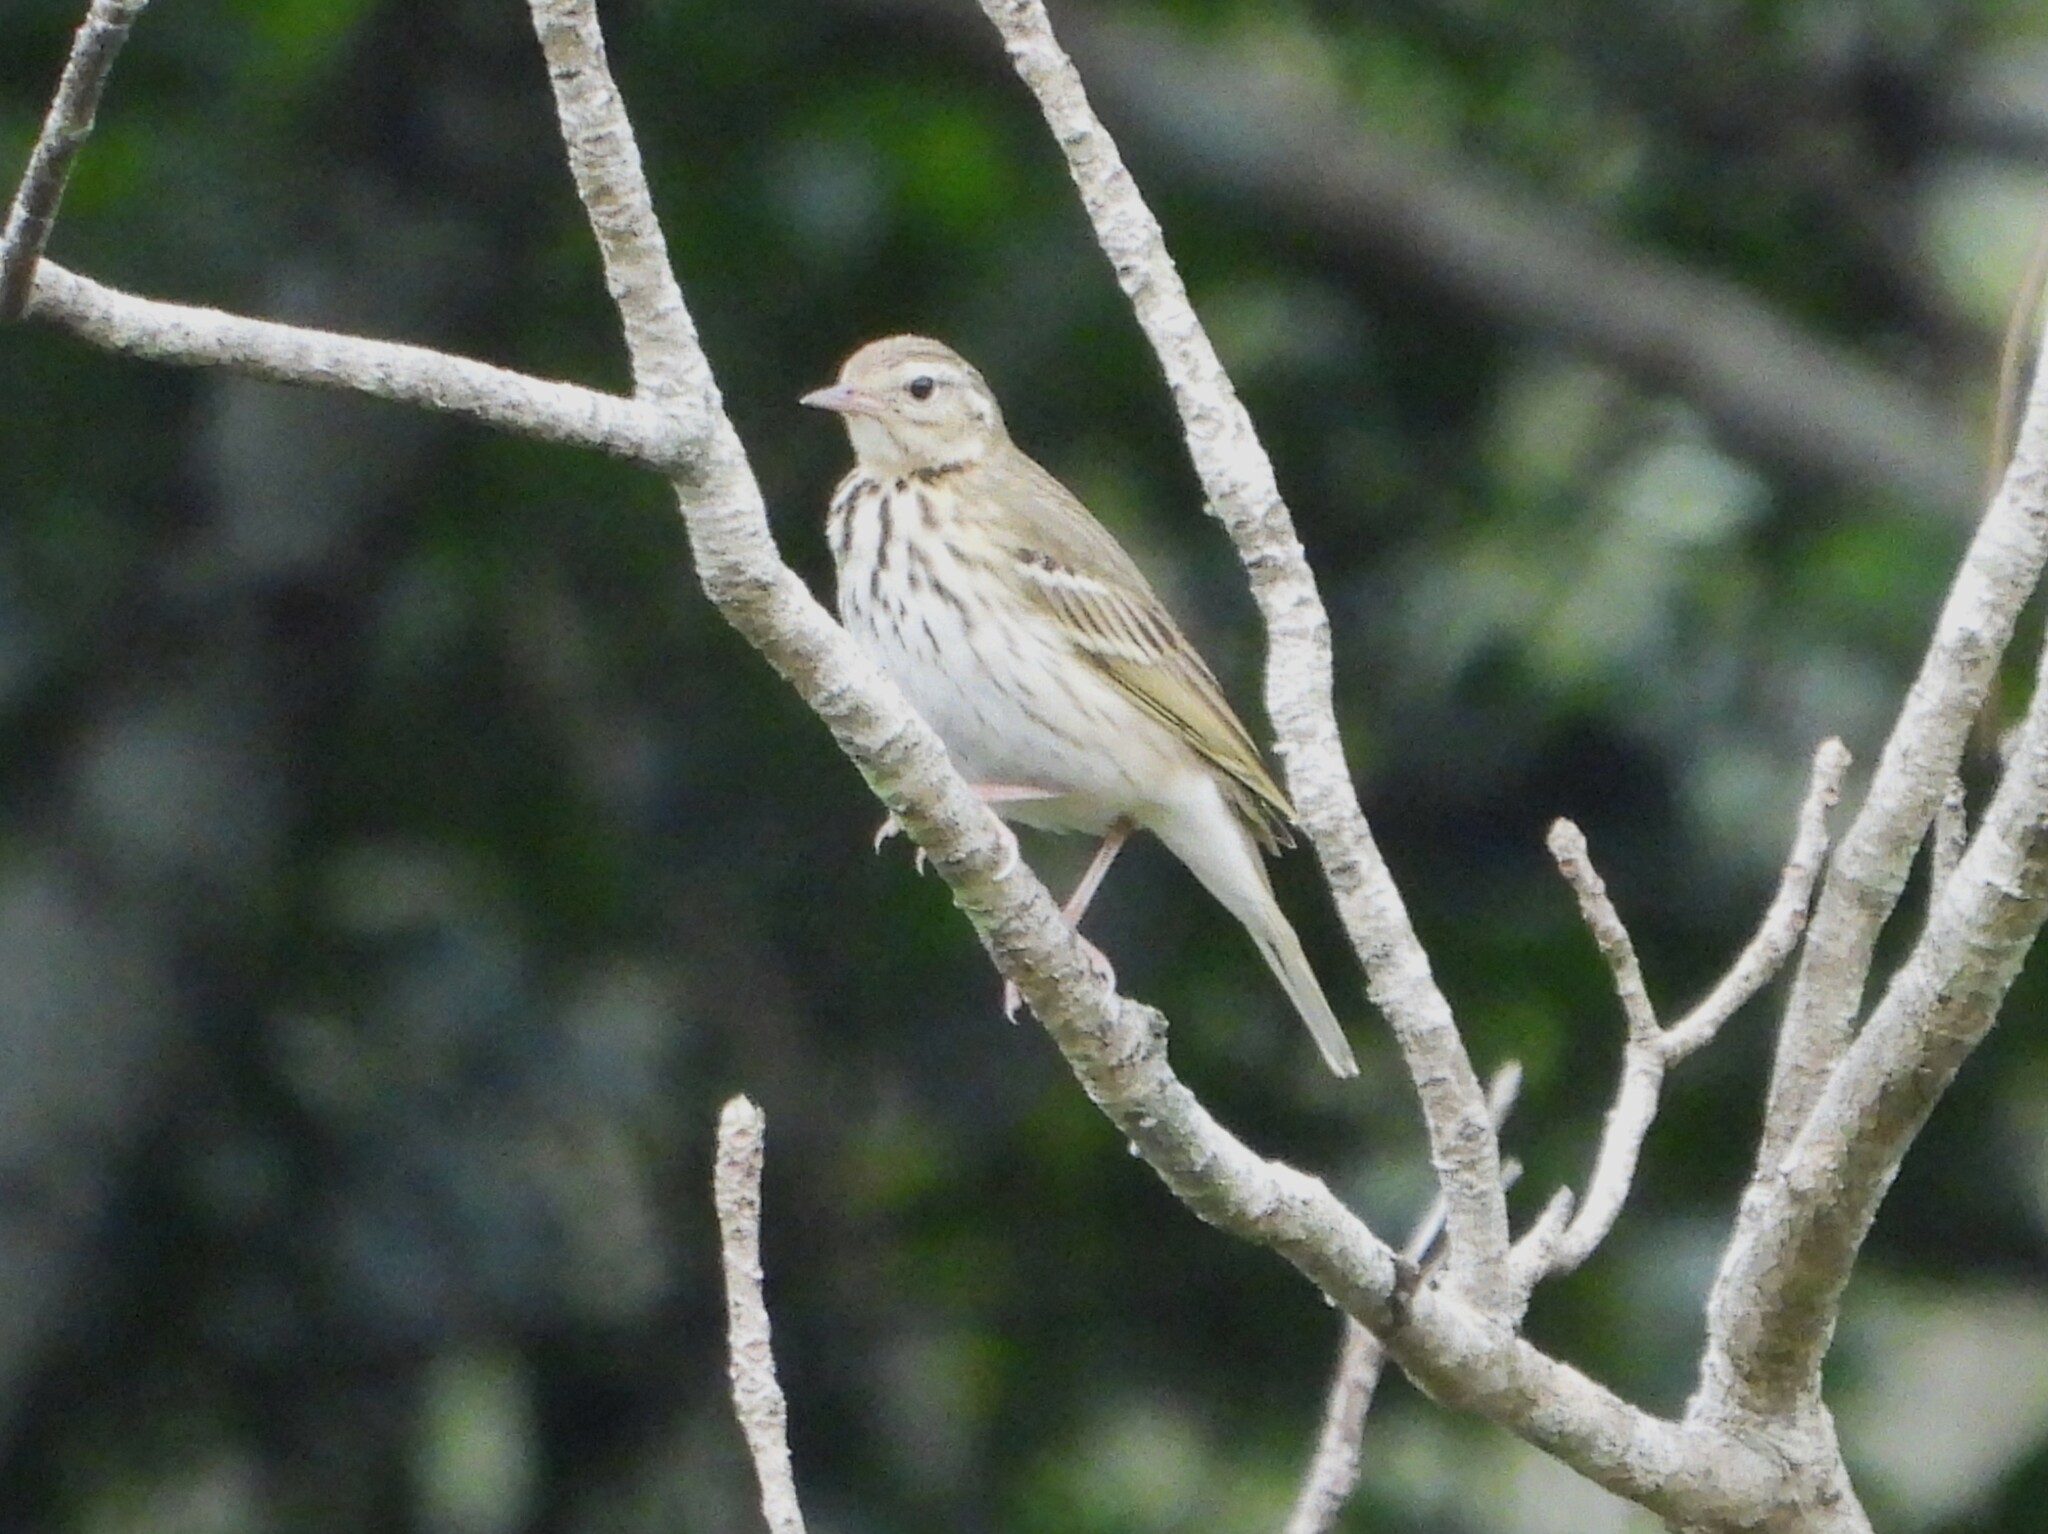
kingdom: Animalia
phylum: Chordata
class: Aves
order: Passeriformes
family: Motacillidae
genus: Anthus
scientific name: Anthus hodgsoni
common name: Olive-backed pipit
